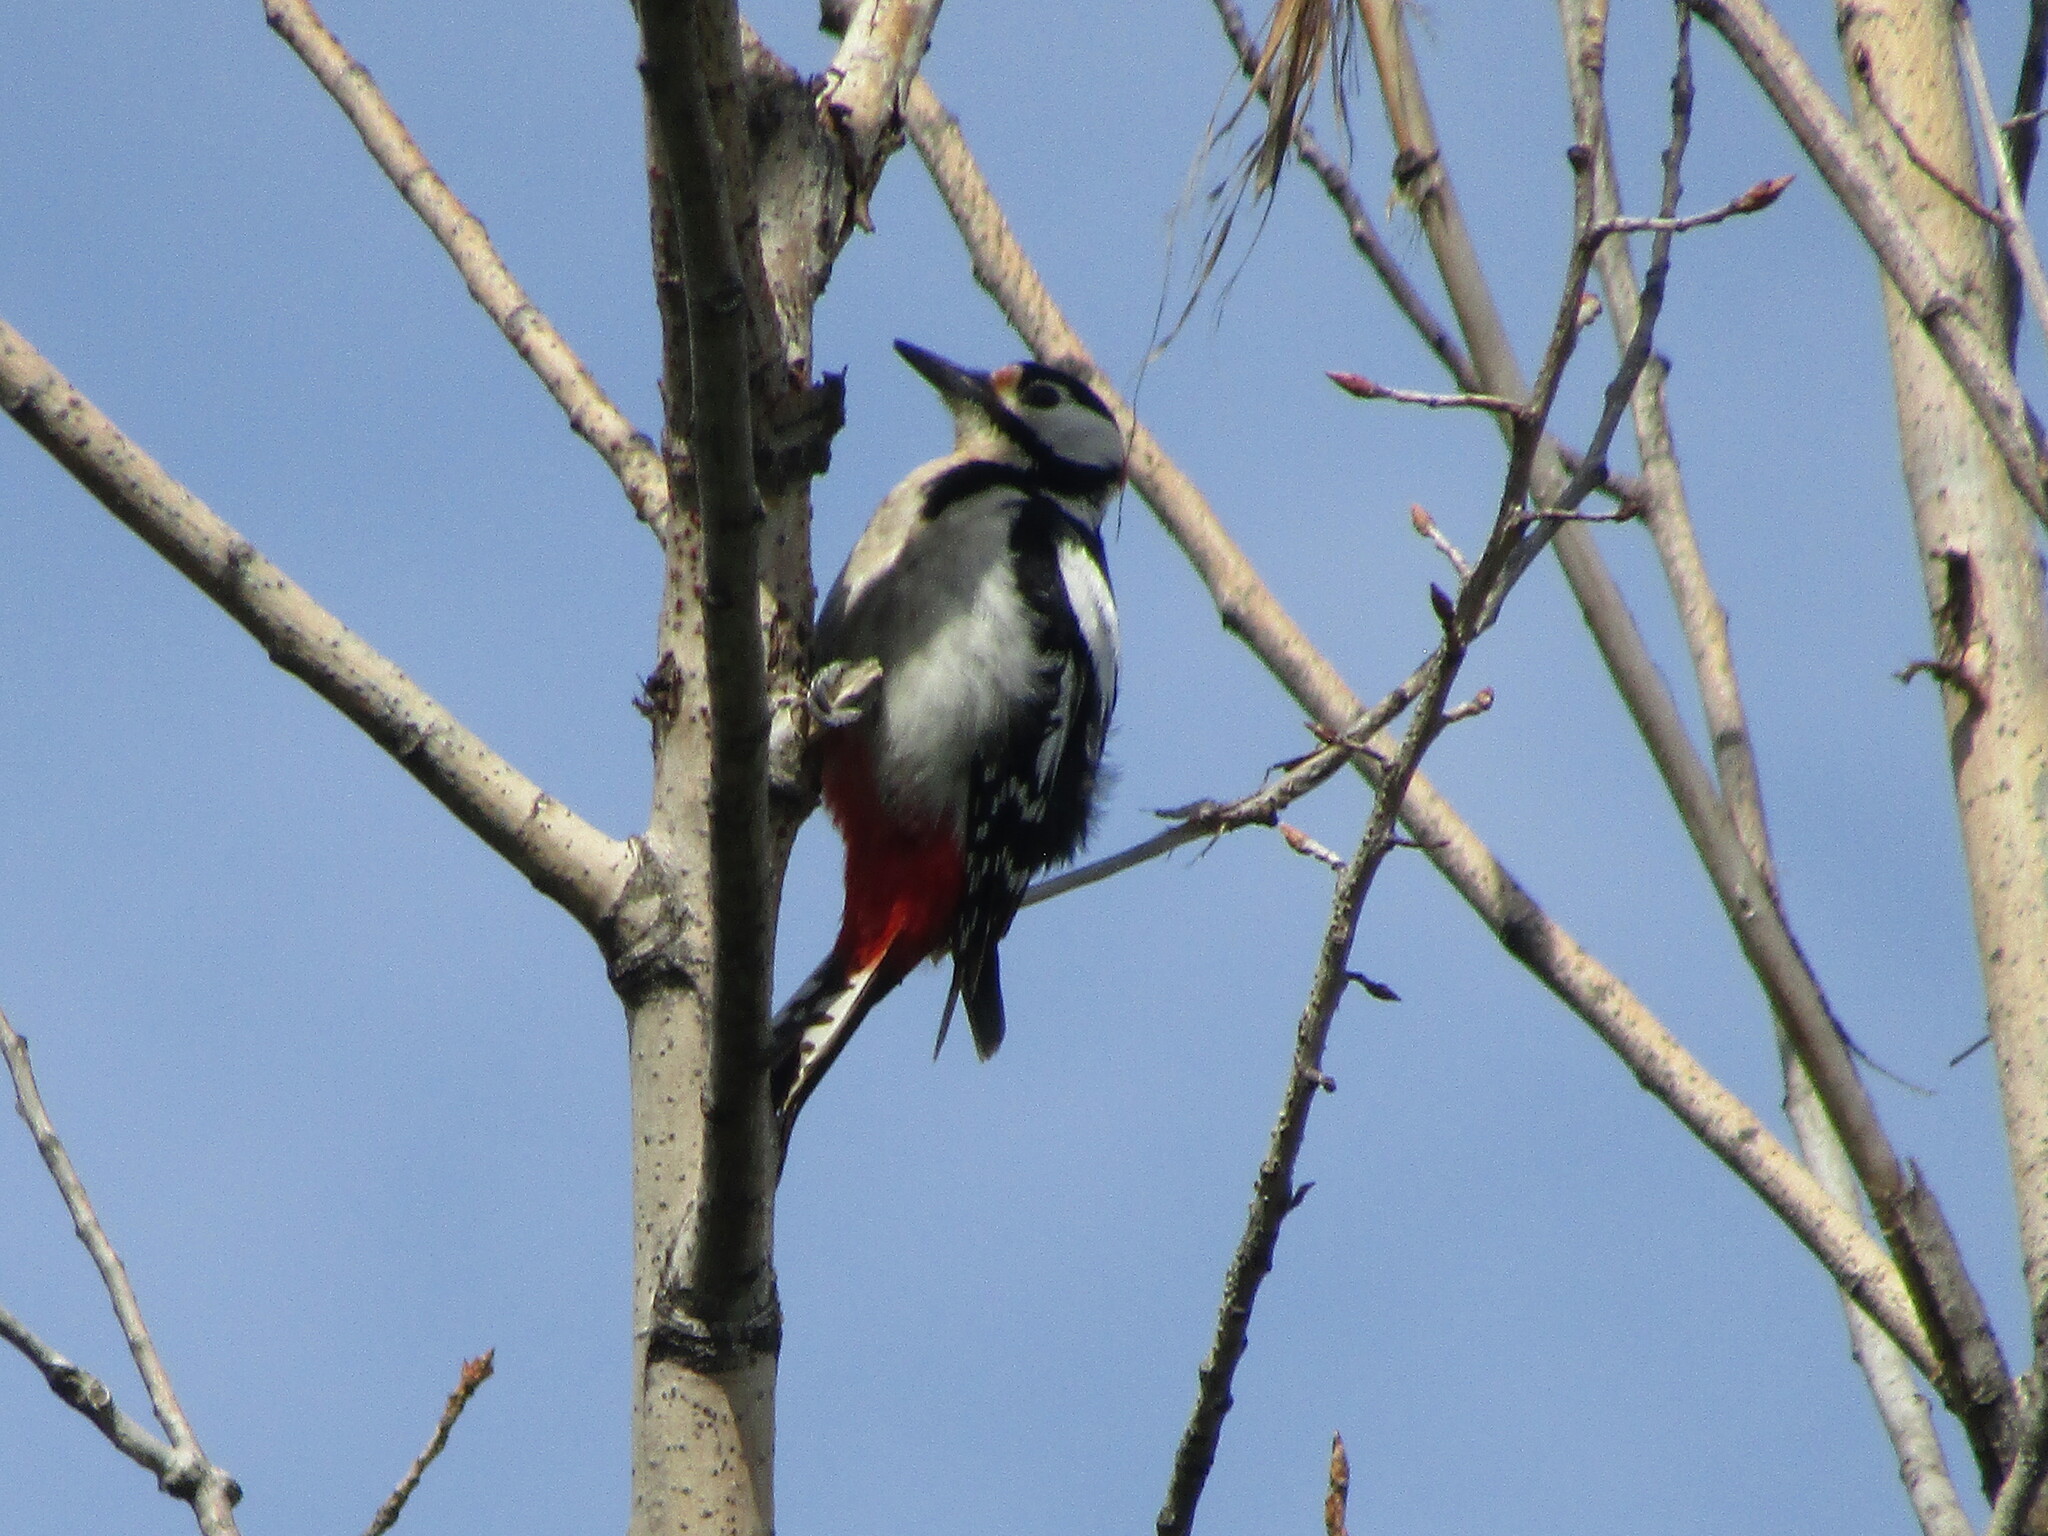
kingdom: Animalia
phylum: Chordata
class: Aves
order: Piciformes
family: Picidae
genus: Dendrocopos
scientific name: Dendrocopos major
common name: Great spotted woodpecker
